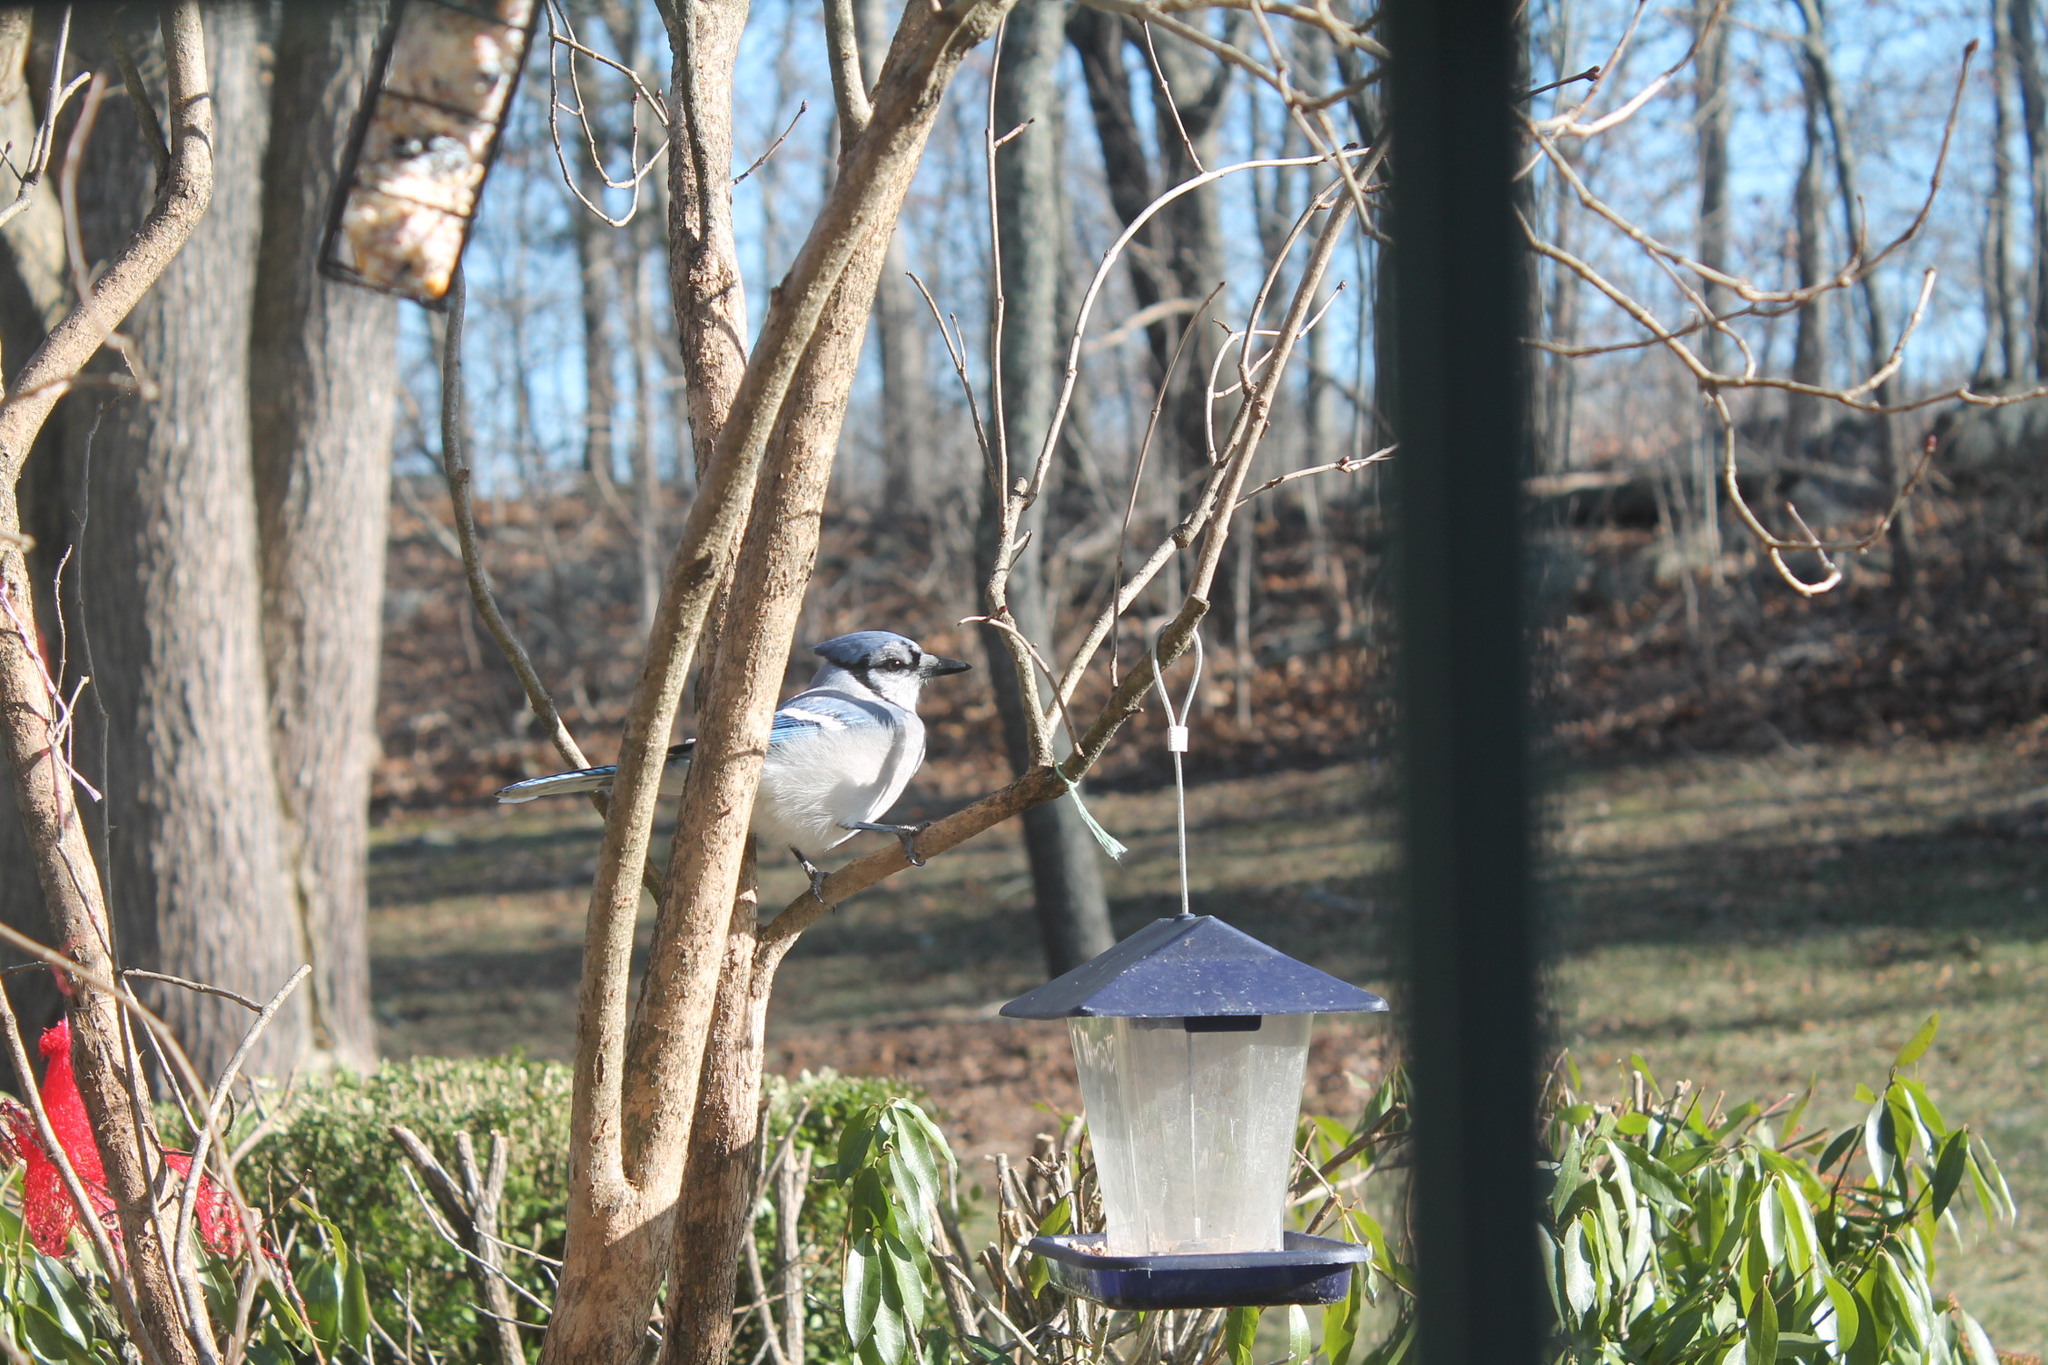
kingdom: Animalia
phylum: Chordata
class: Aves
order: Passeriformes
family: Corvidae
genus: Cyanocitta
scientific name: Cyanocitta cristata
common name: Blue jay
